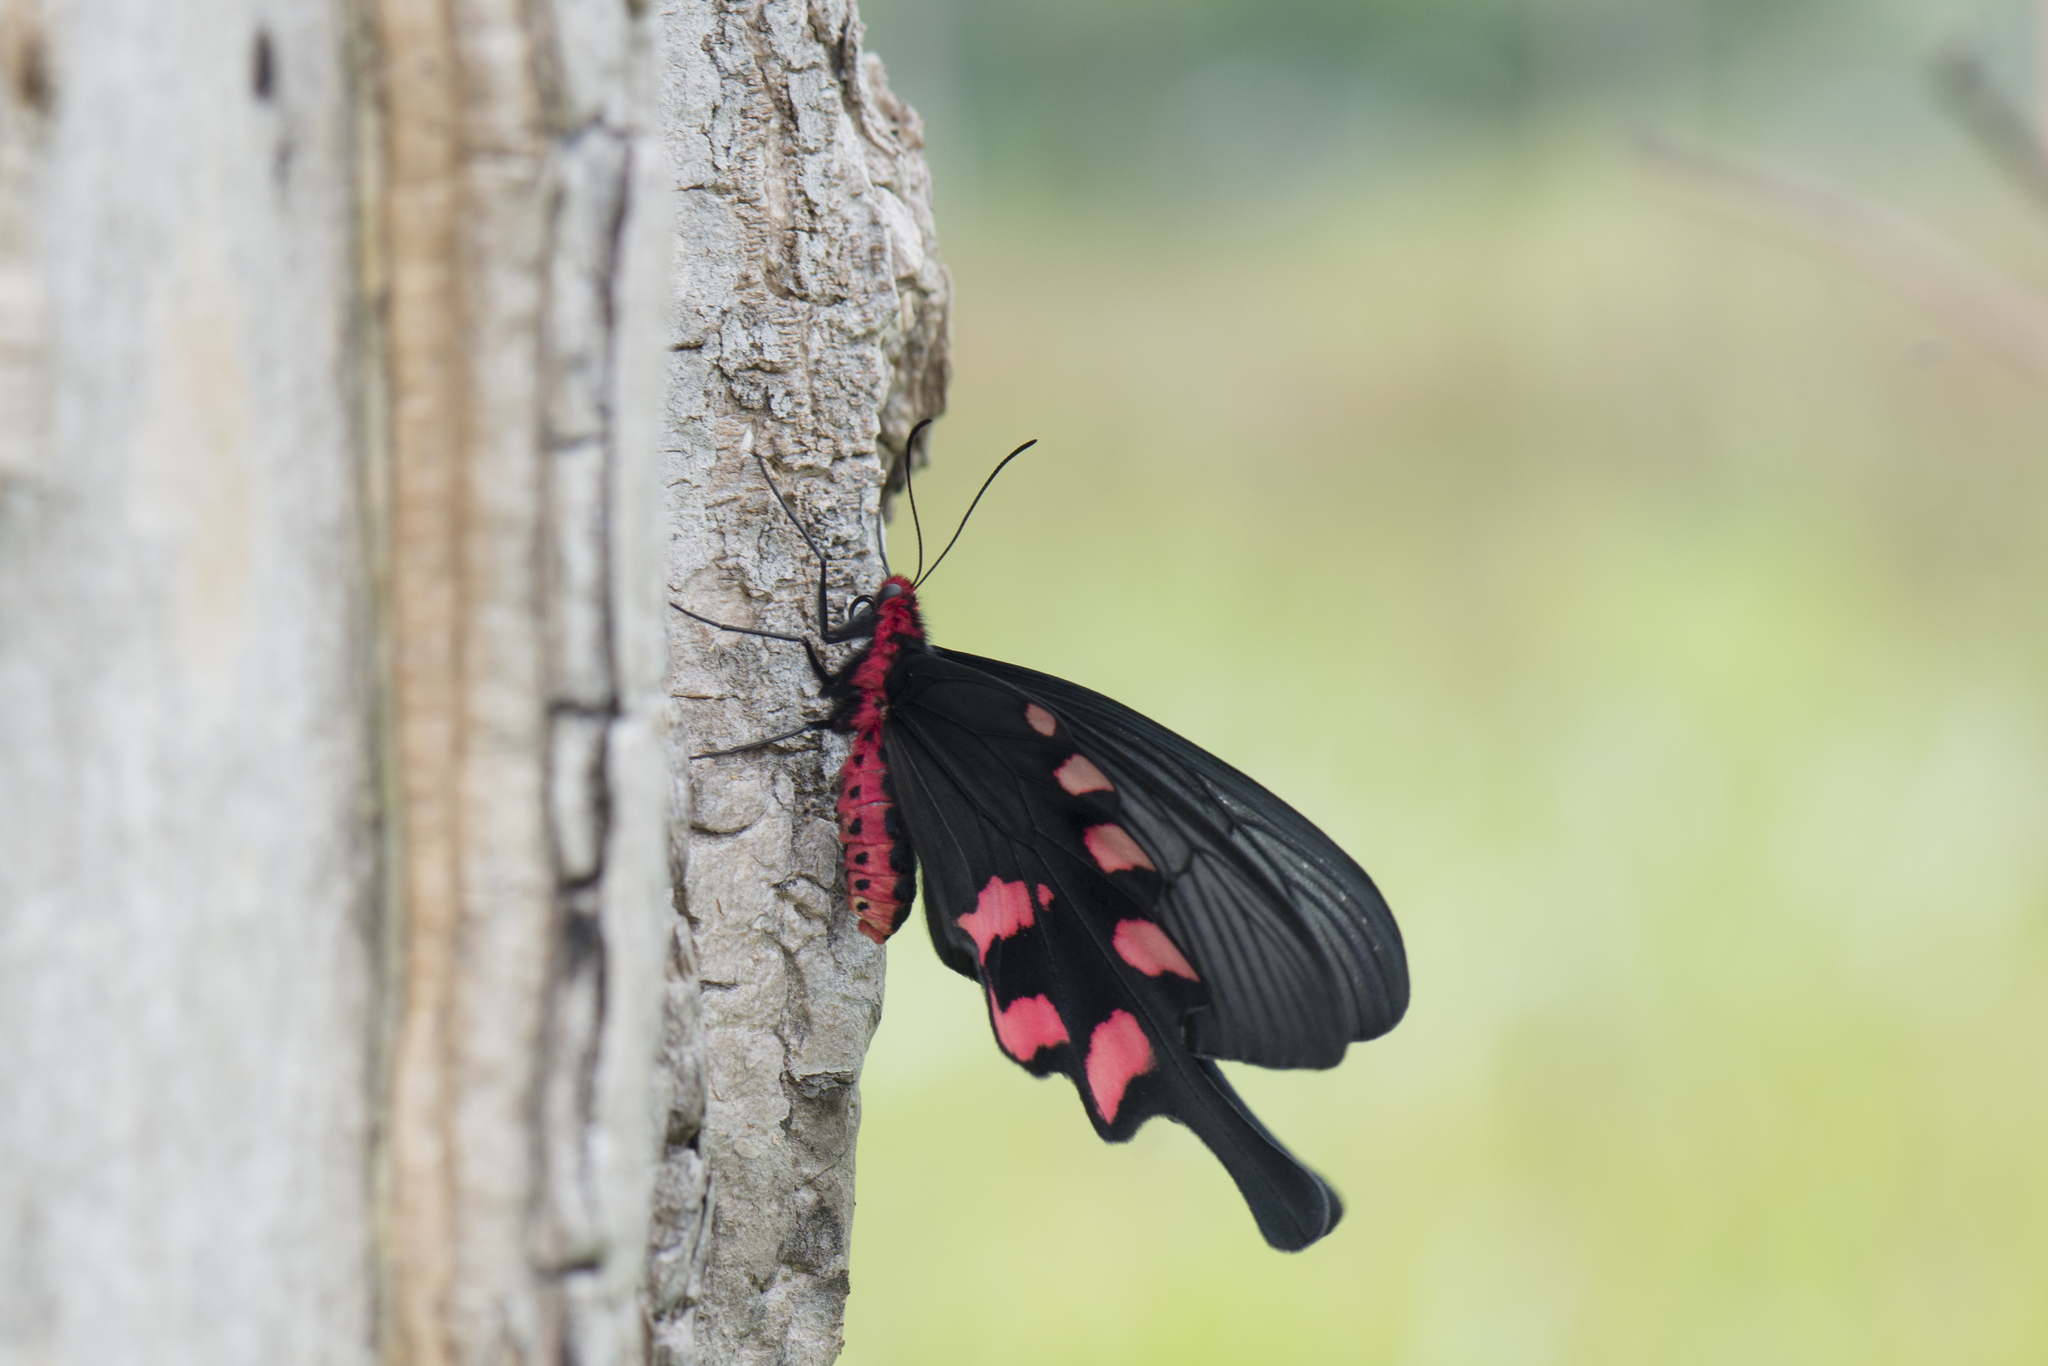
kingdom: Animalia
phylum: Arthropoda
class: Insecta
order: Lepidoptera
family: Papilionidae
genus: Byasa
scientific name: Byasa impediens
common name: Pink-spotted windmill
